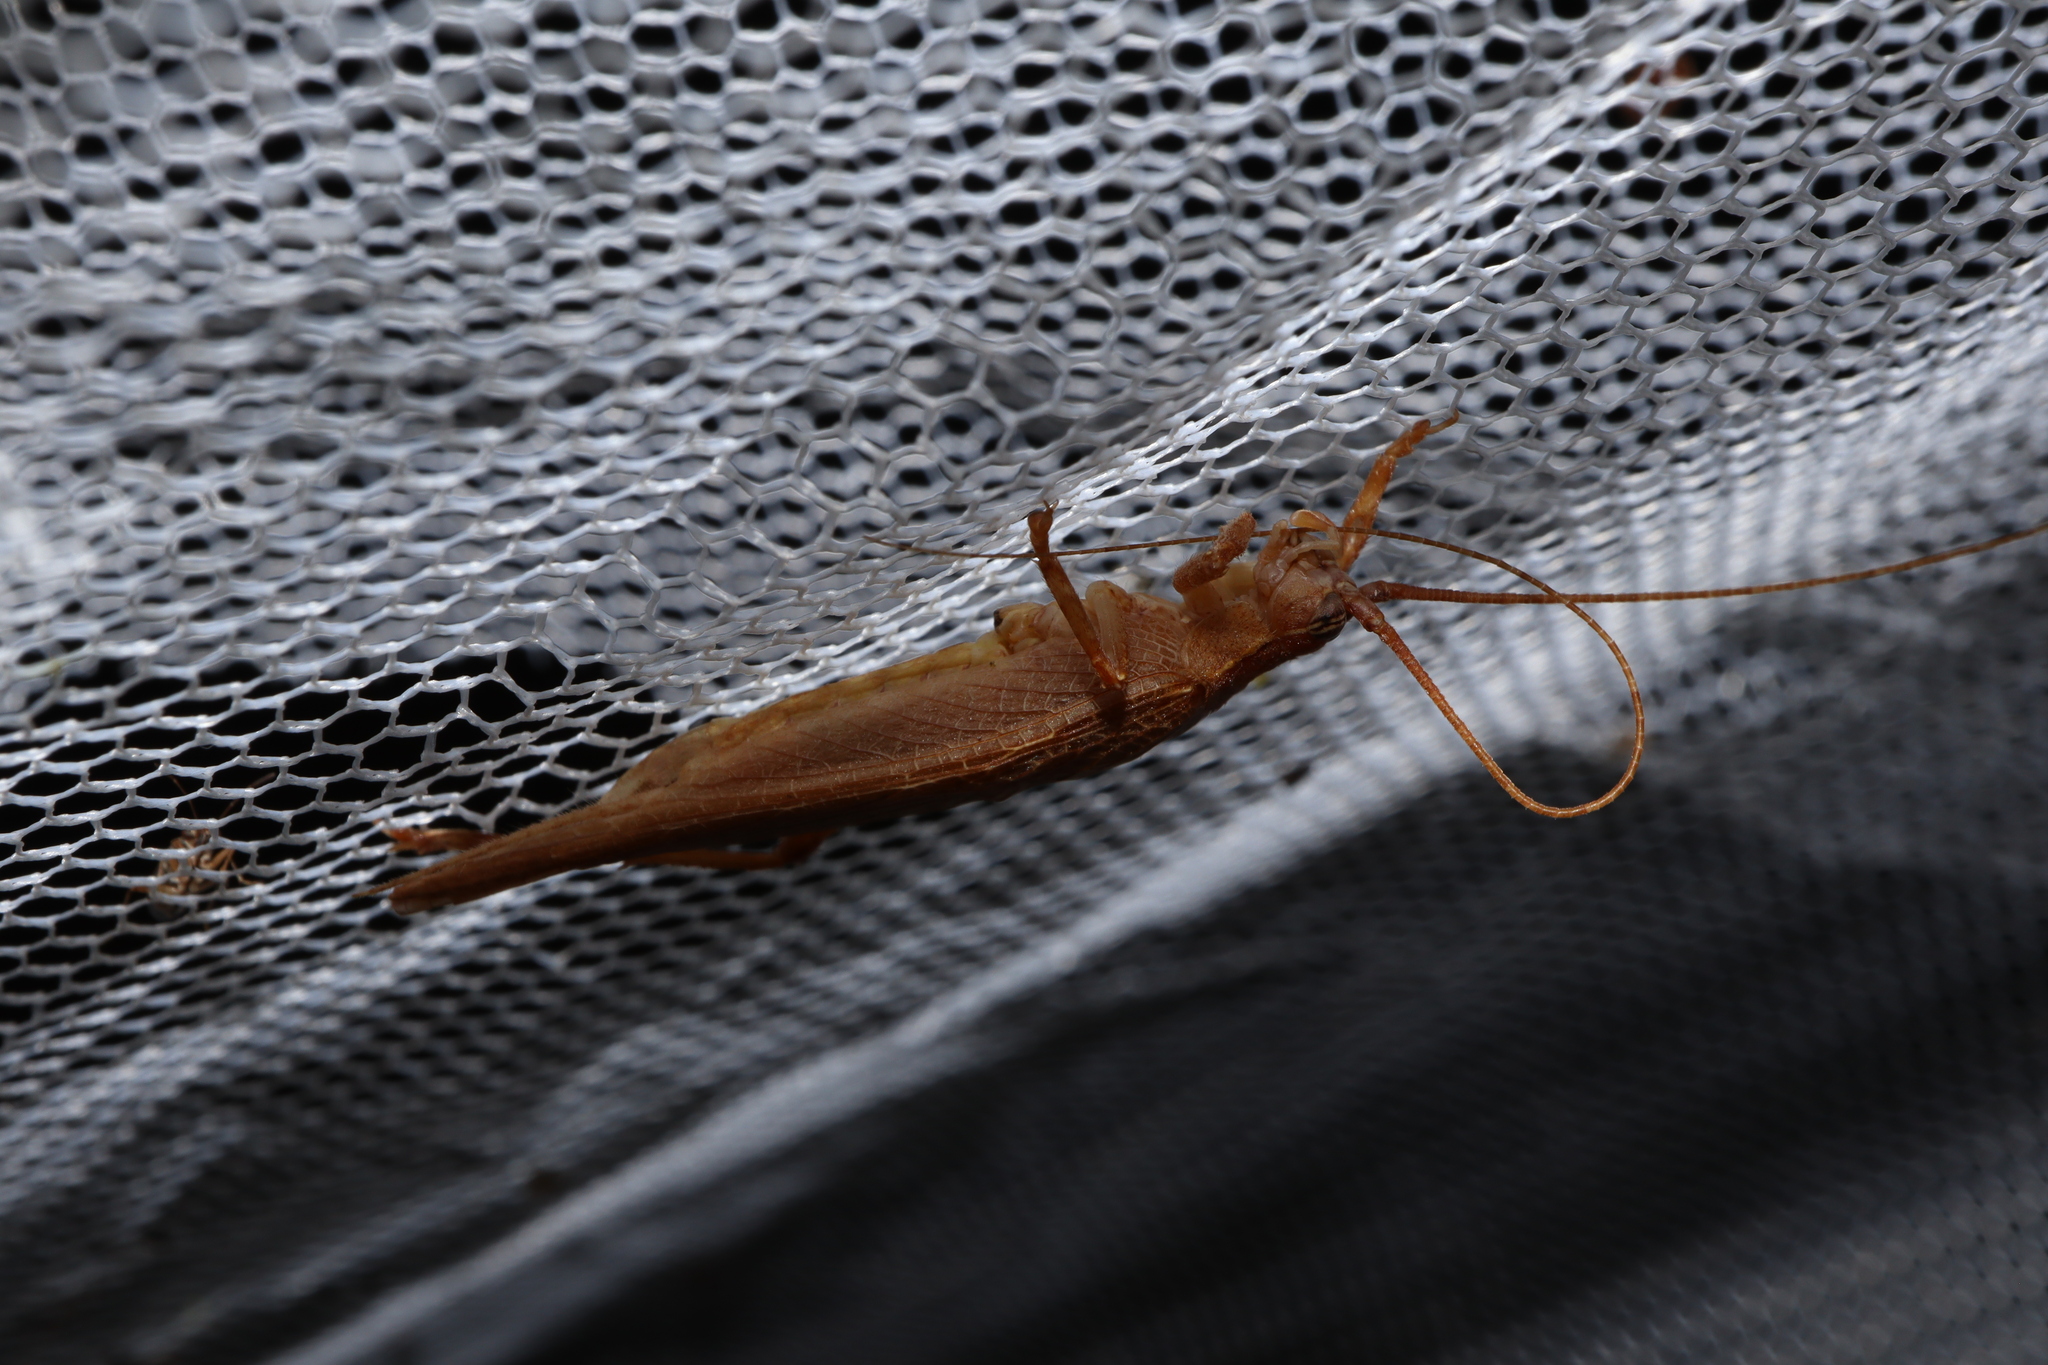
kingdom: Animalia
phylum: Arthropoda
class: Insecta
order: Orthoptera
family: Gryllidae
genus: Hemiphonus
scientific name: Hemiphonus warringus
